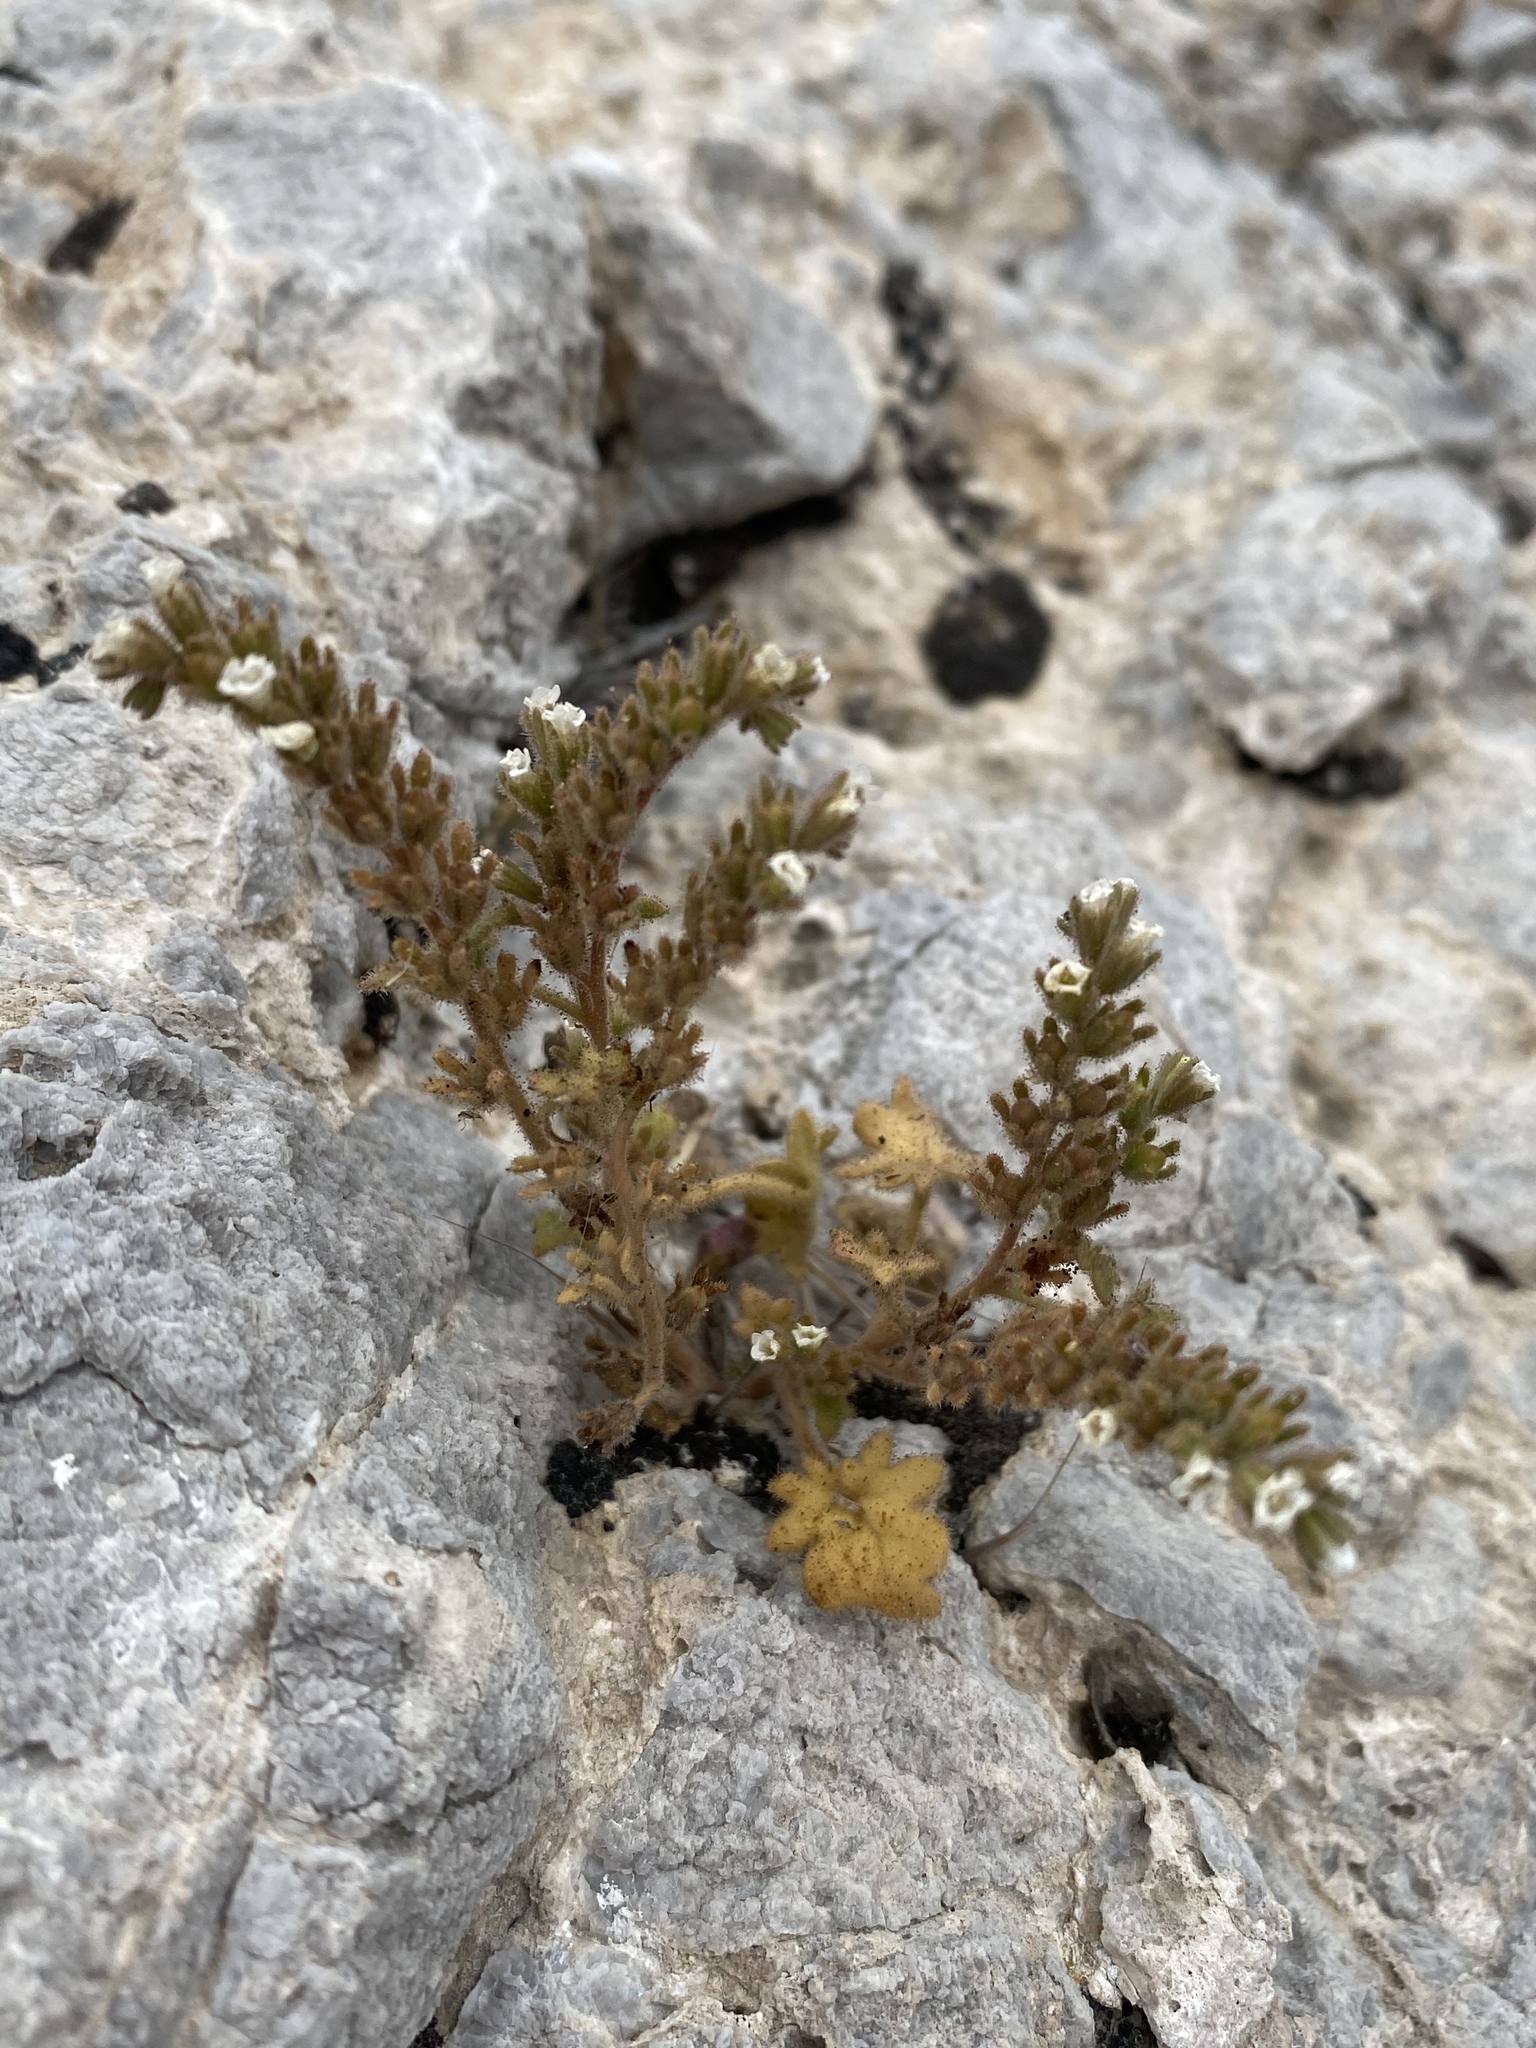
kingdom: Plantae
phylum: Tracheophyta
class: Magnoliopsida
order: Boraginales
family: Hydrophyllaceae
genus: Phacelia
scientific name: Phacelia rotundifolia
